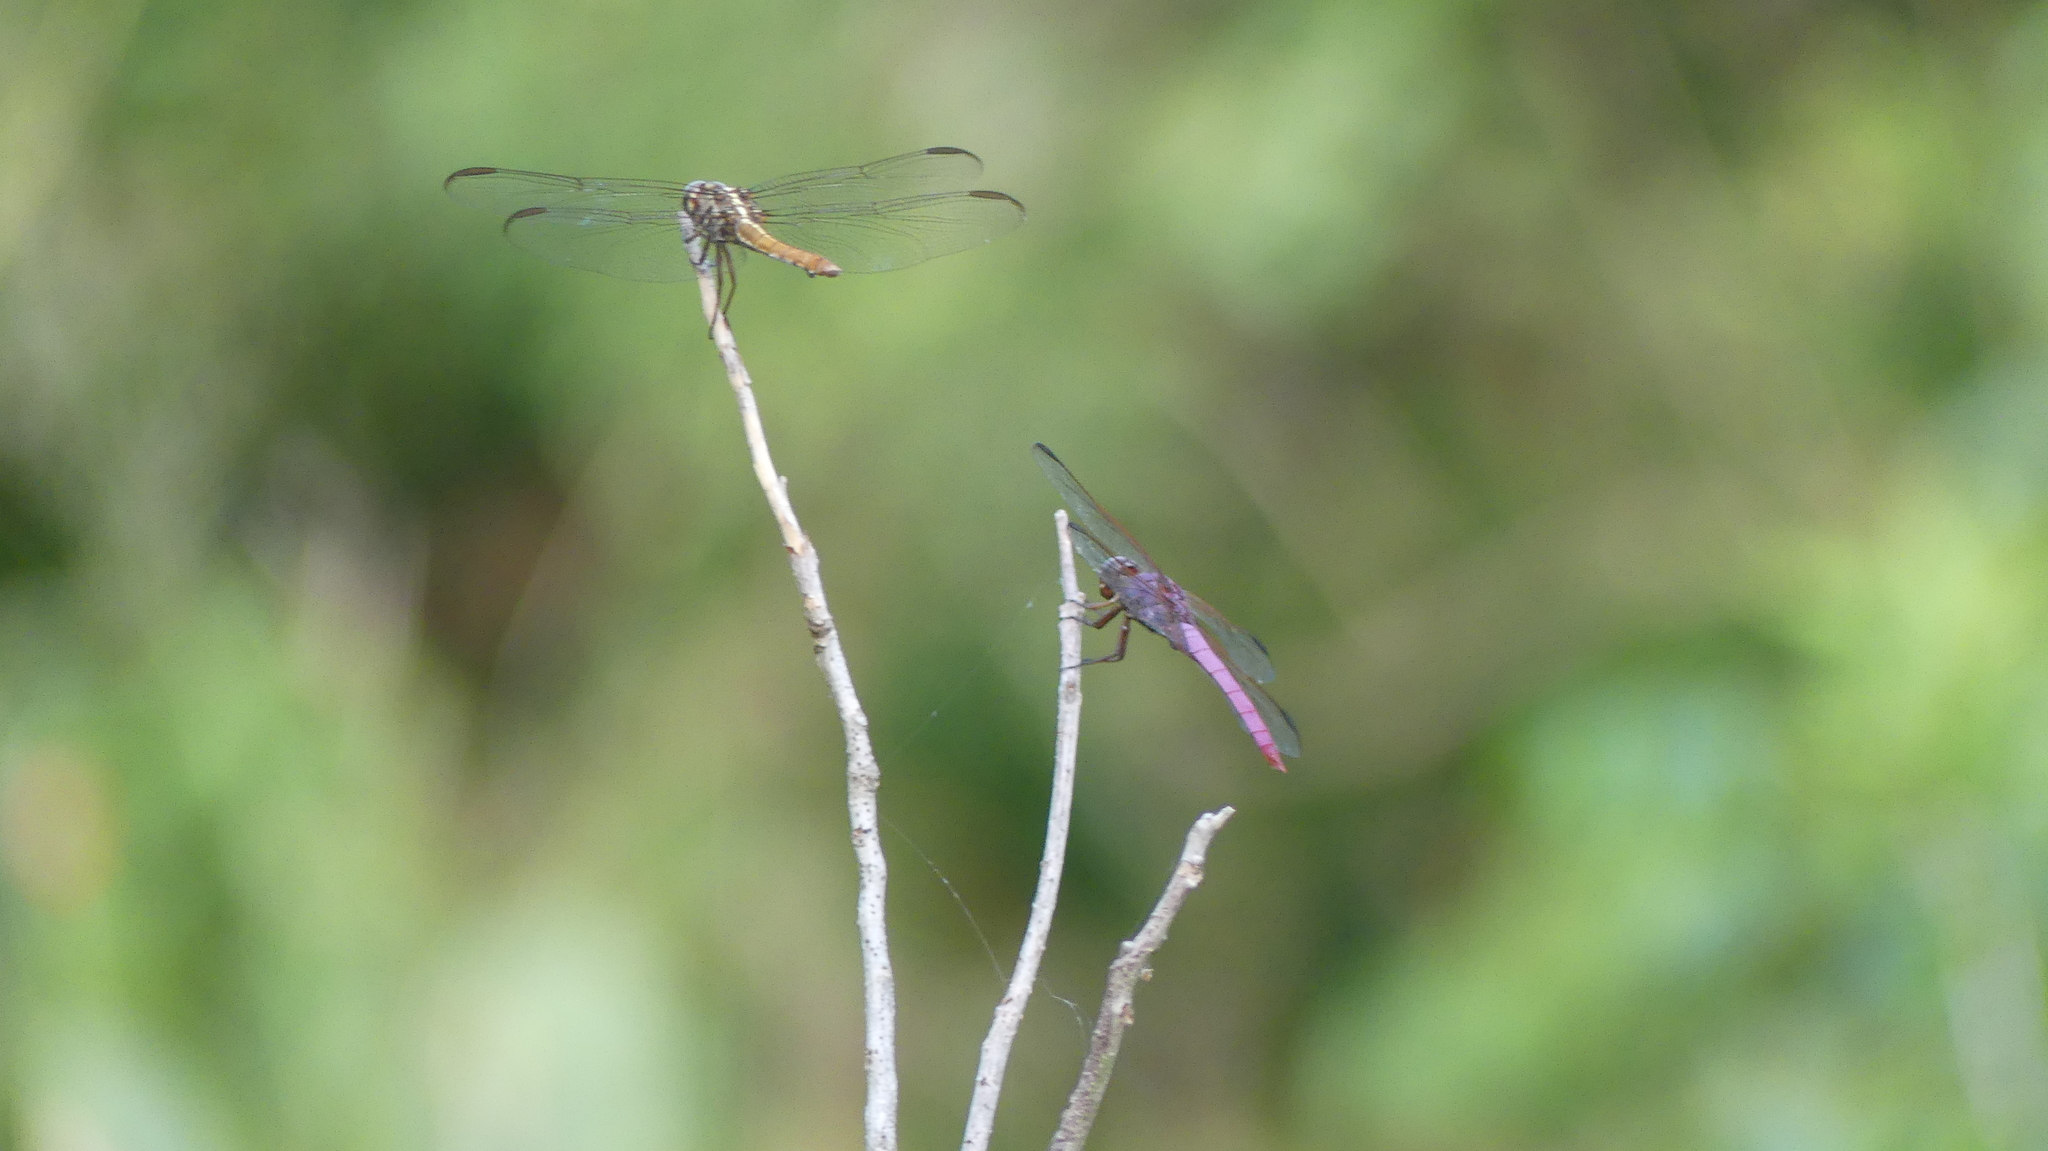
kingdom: Animalia
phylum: Arthropoda
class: Insecta
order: Odonata
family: Libellulidae
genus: Orthemis
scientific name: Orthemis ferruginea
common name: Roseate skimmer
